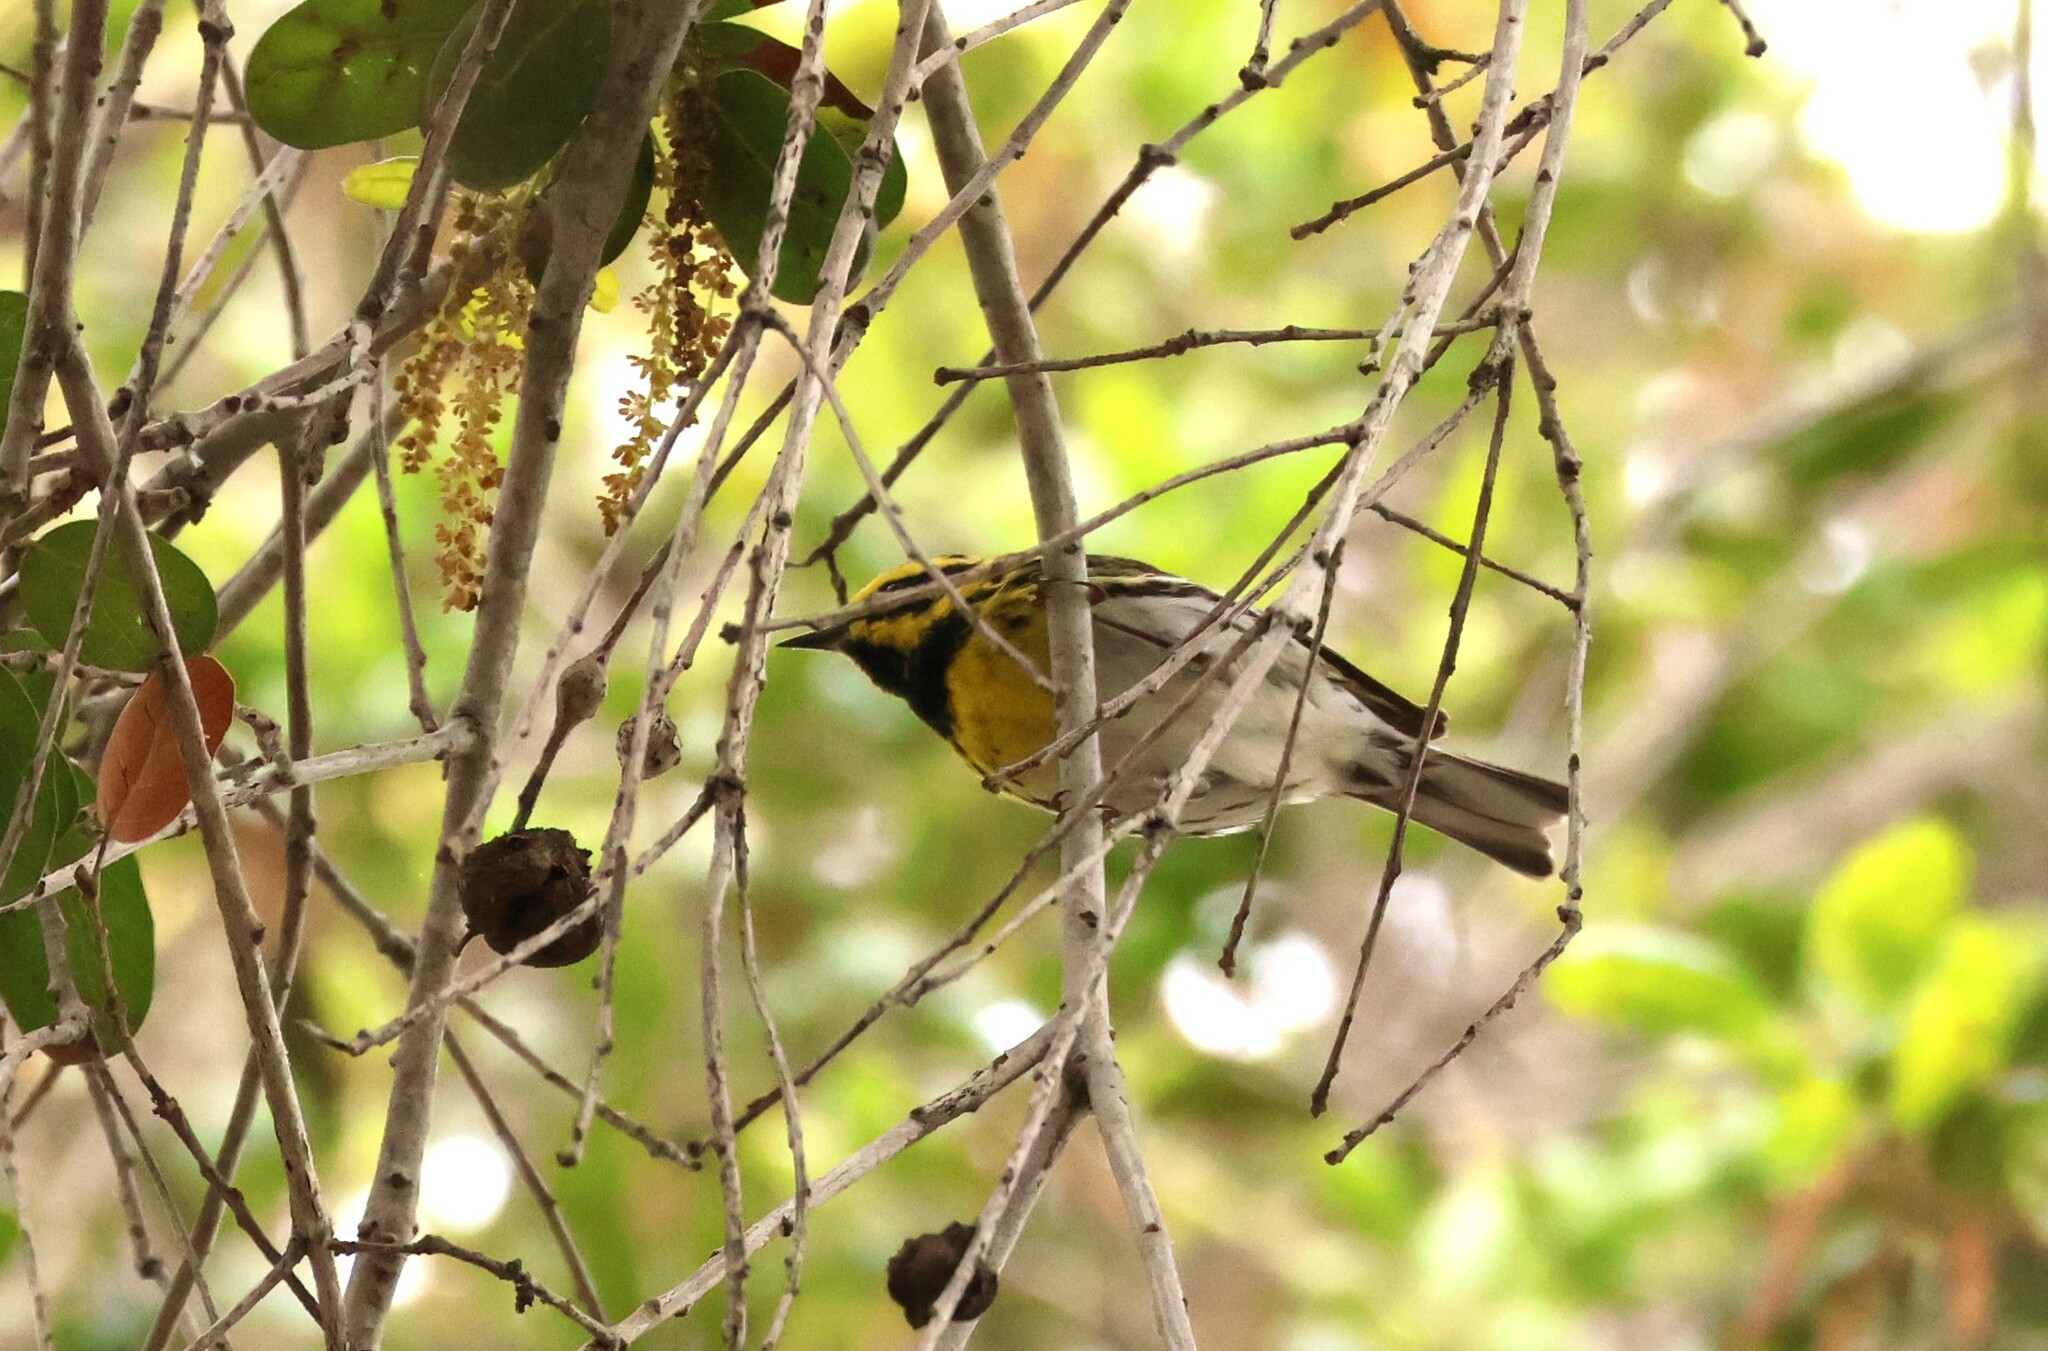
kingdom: Animalia
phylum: Chordata
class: Aves
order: Passeriformes
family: Parulidae
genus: Setophaga
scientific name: Setophaga townsendi
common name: Townsend's warbler
